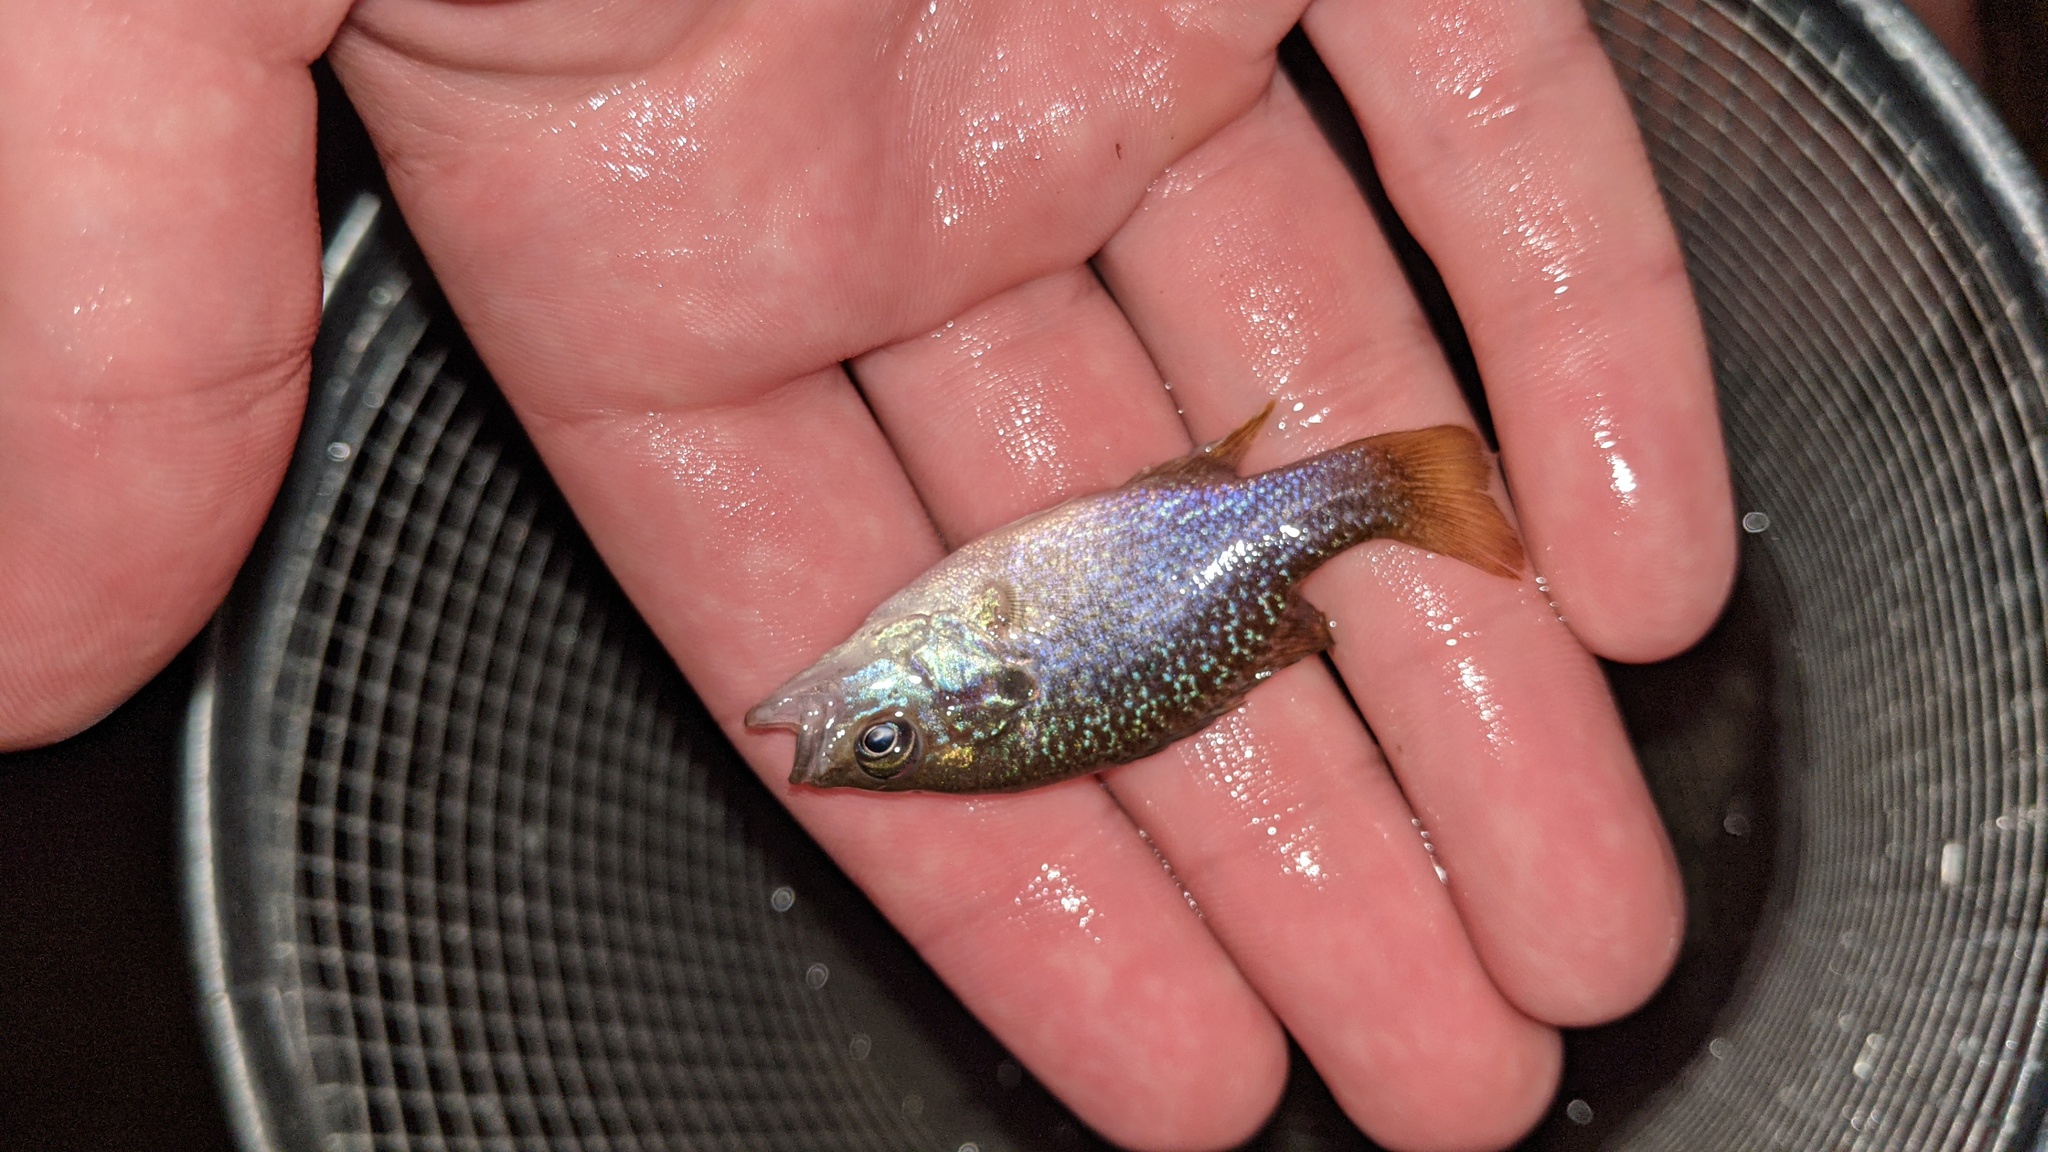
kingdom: Animalia
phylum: Chordata
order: Perciformes
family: Centrarchidae
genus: Lepomis
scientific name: Lepomis cyanellus
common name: Green sunfish
